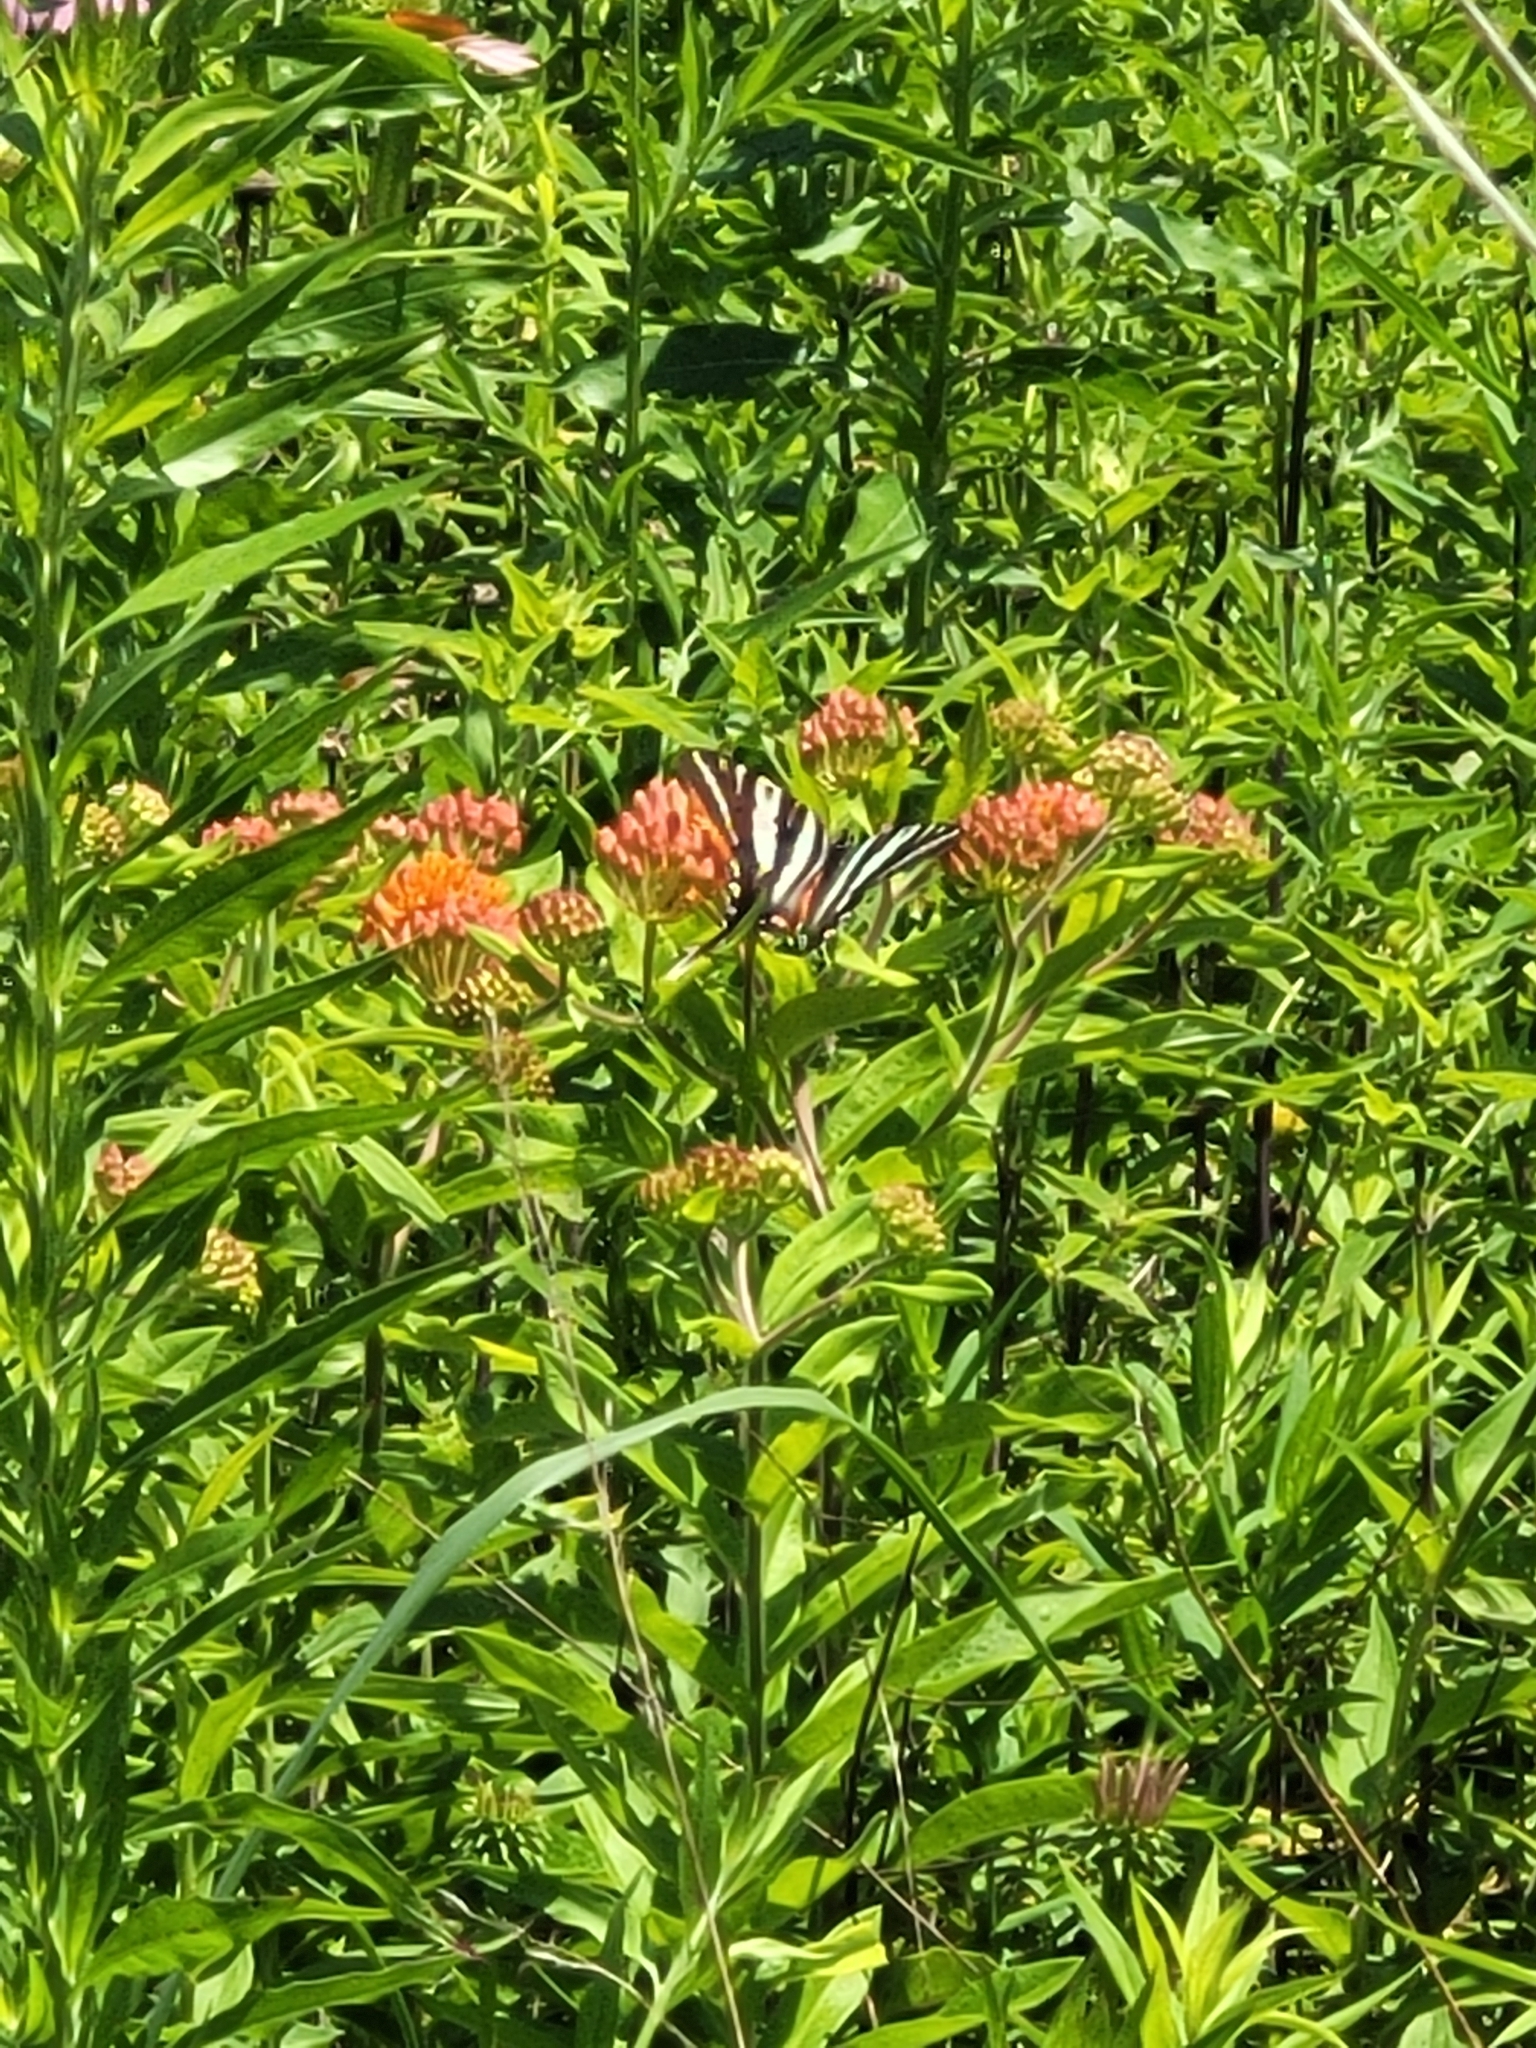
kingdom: Animalia
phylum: Arthropoda
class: Insecta
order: Lepidoptera
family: Papilionidae
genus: Protographium
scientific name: Protographium marcellus
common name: Zebra swallowtail
